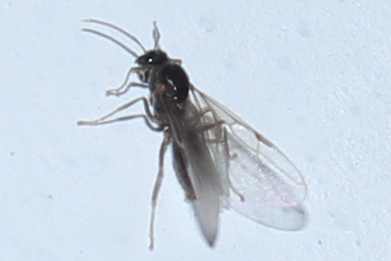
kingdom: Animalia
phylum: Arthropoda
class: Insecta
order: Hymenoptera
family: Formicidae
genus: Lasius
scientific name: Lasius
